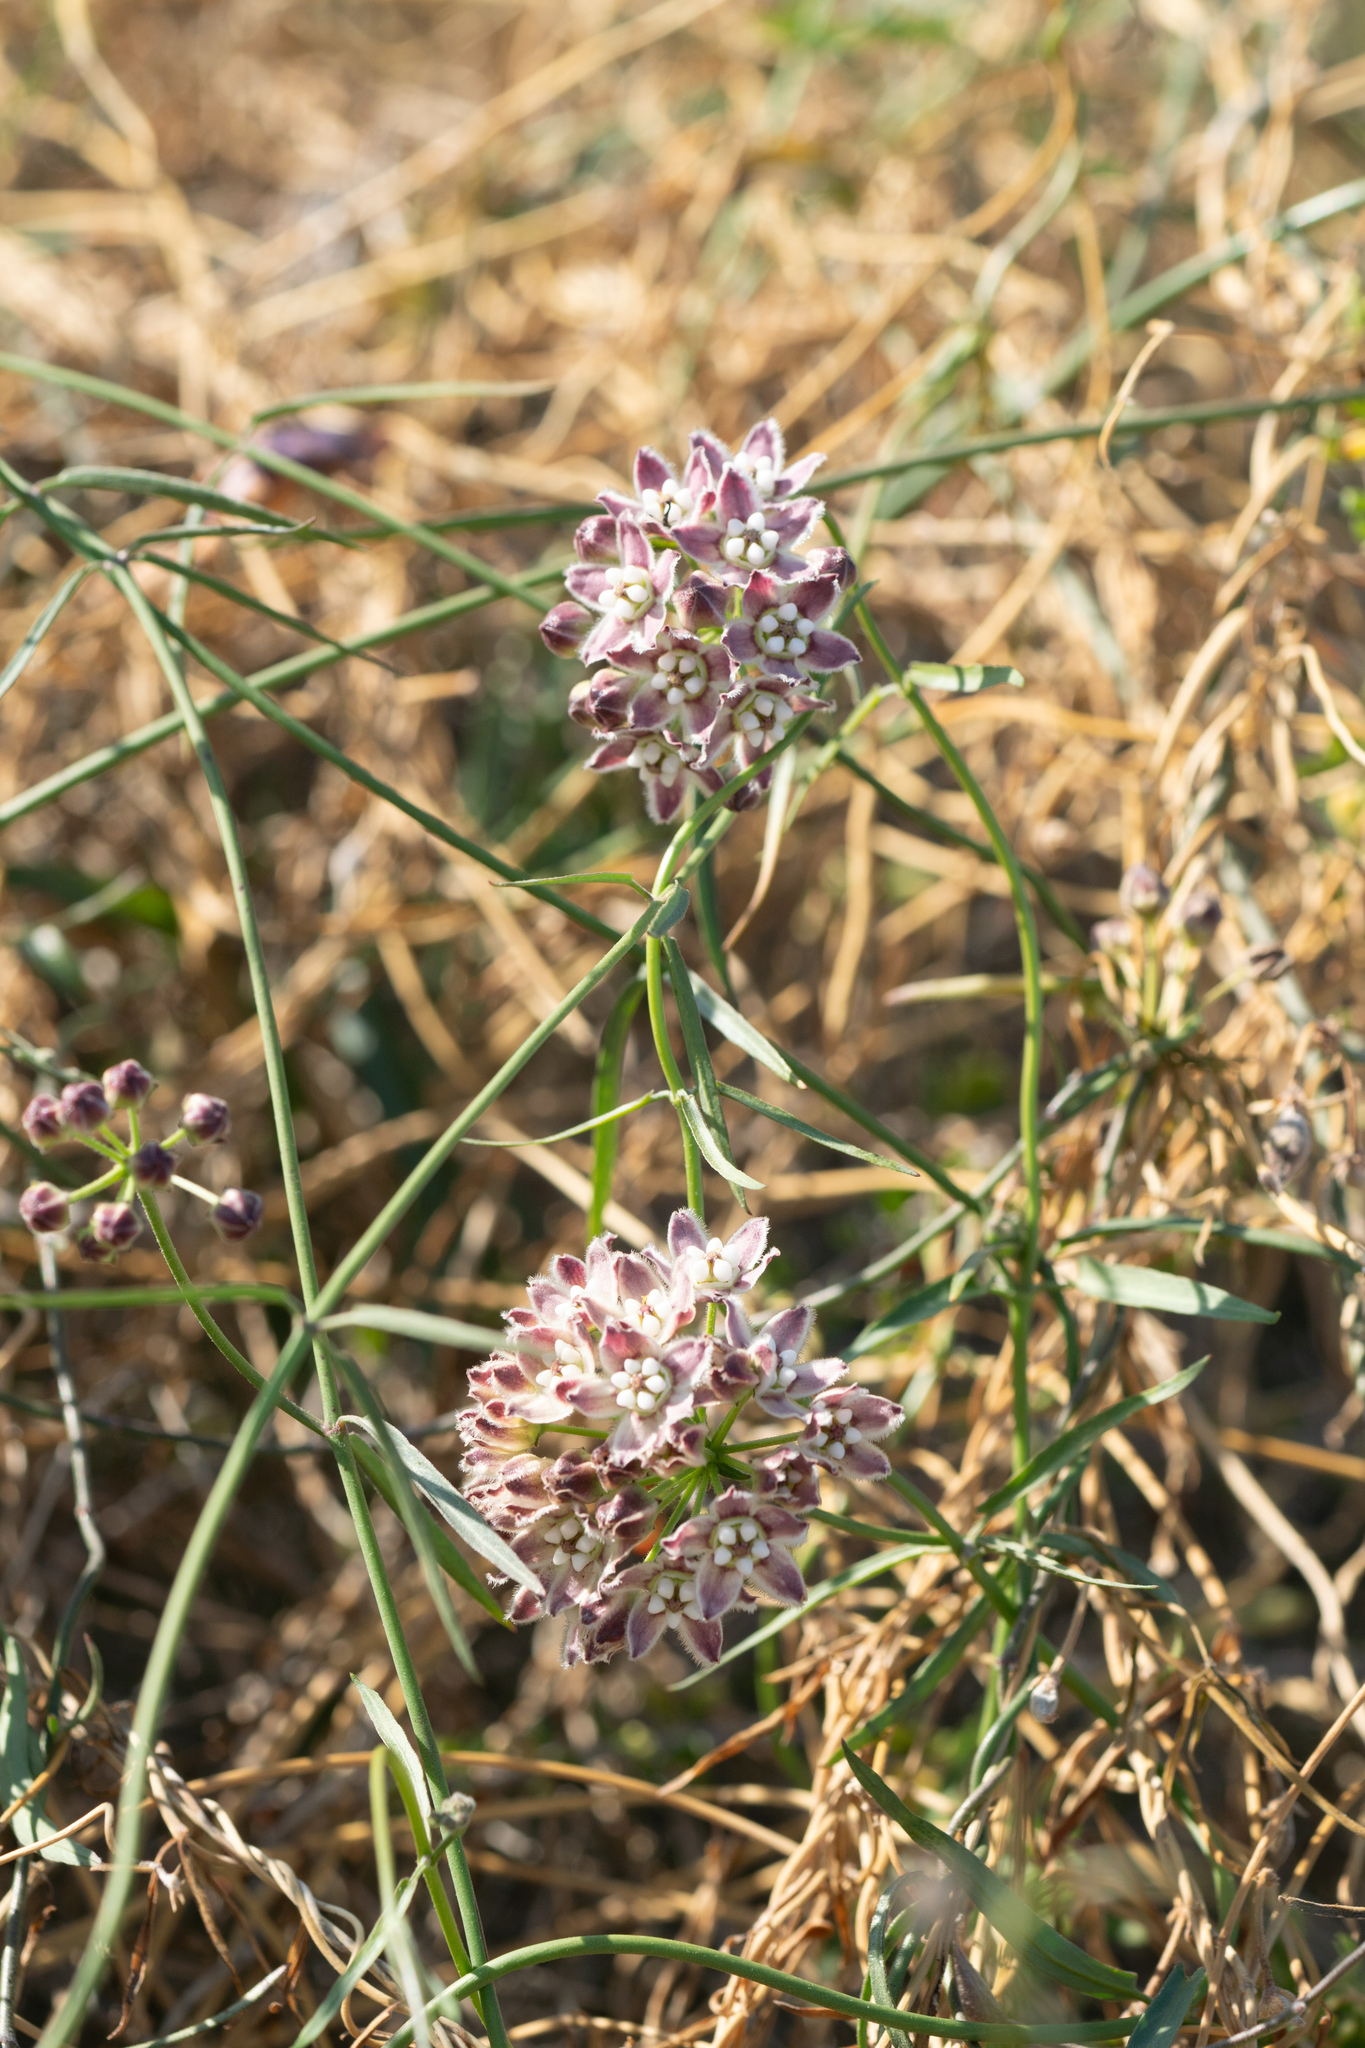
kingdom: Plantae
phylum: Tracheophyta
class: Magnoliopsida
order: Gentianales
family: Apocynaceae
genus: Funastrum
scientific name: Funastrum heterophyllum
